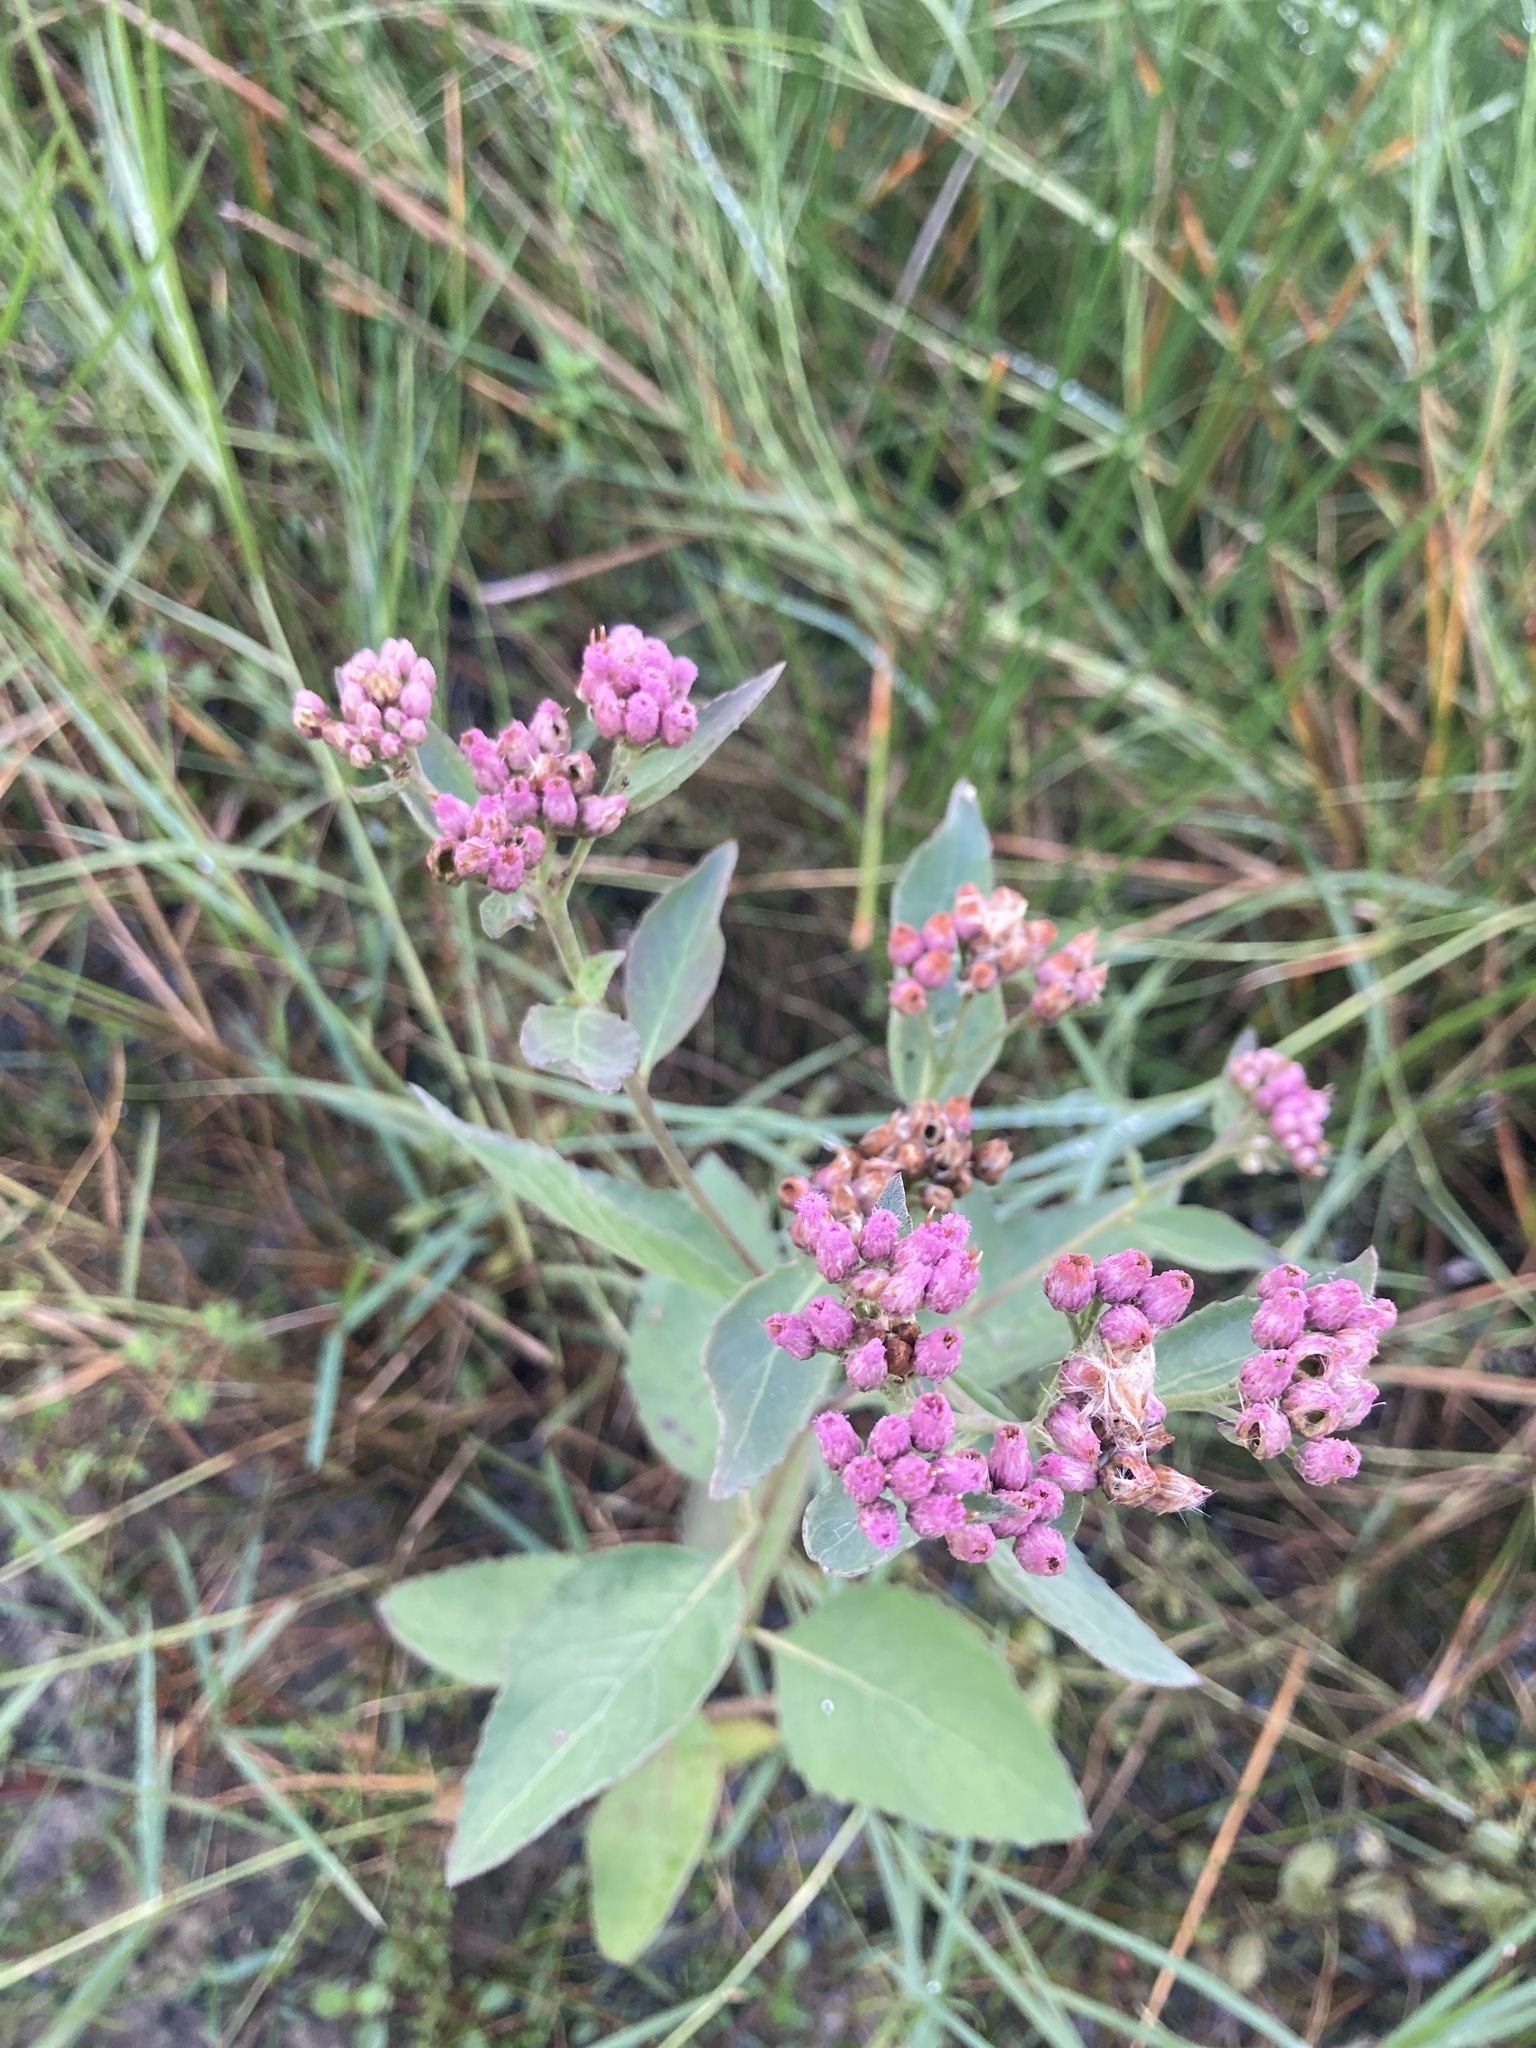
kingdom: Plantae
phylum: Tracheophyta
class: Magnoliopsida
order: Asterales
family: Asteraceae
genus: Pluchea
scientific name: Pluchea odorata
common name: Saltmarsh fleabane
